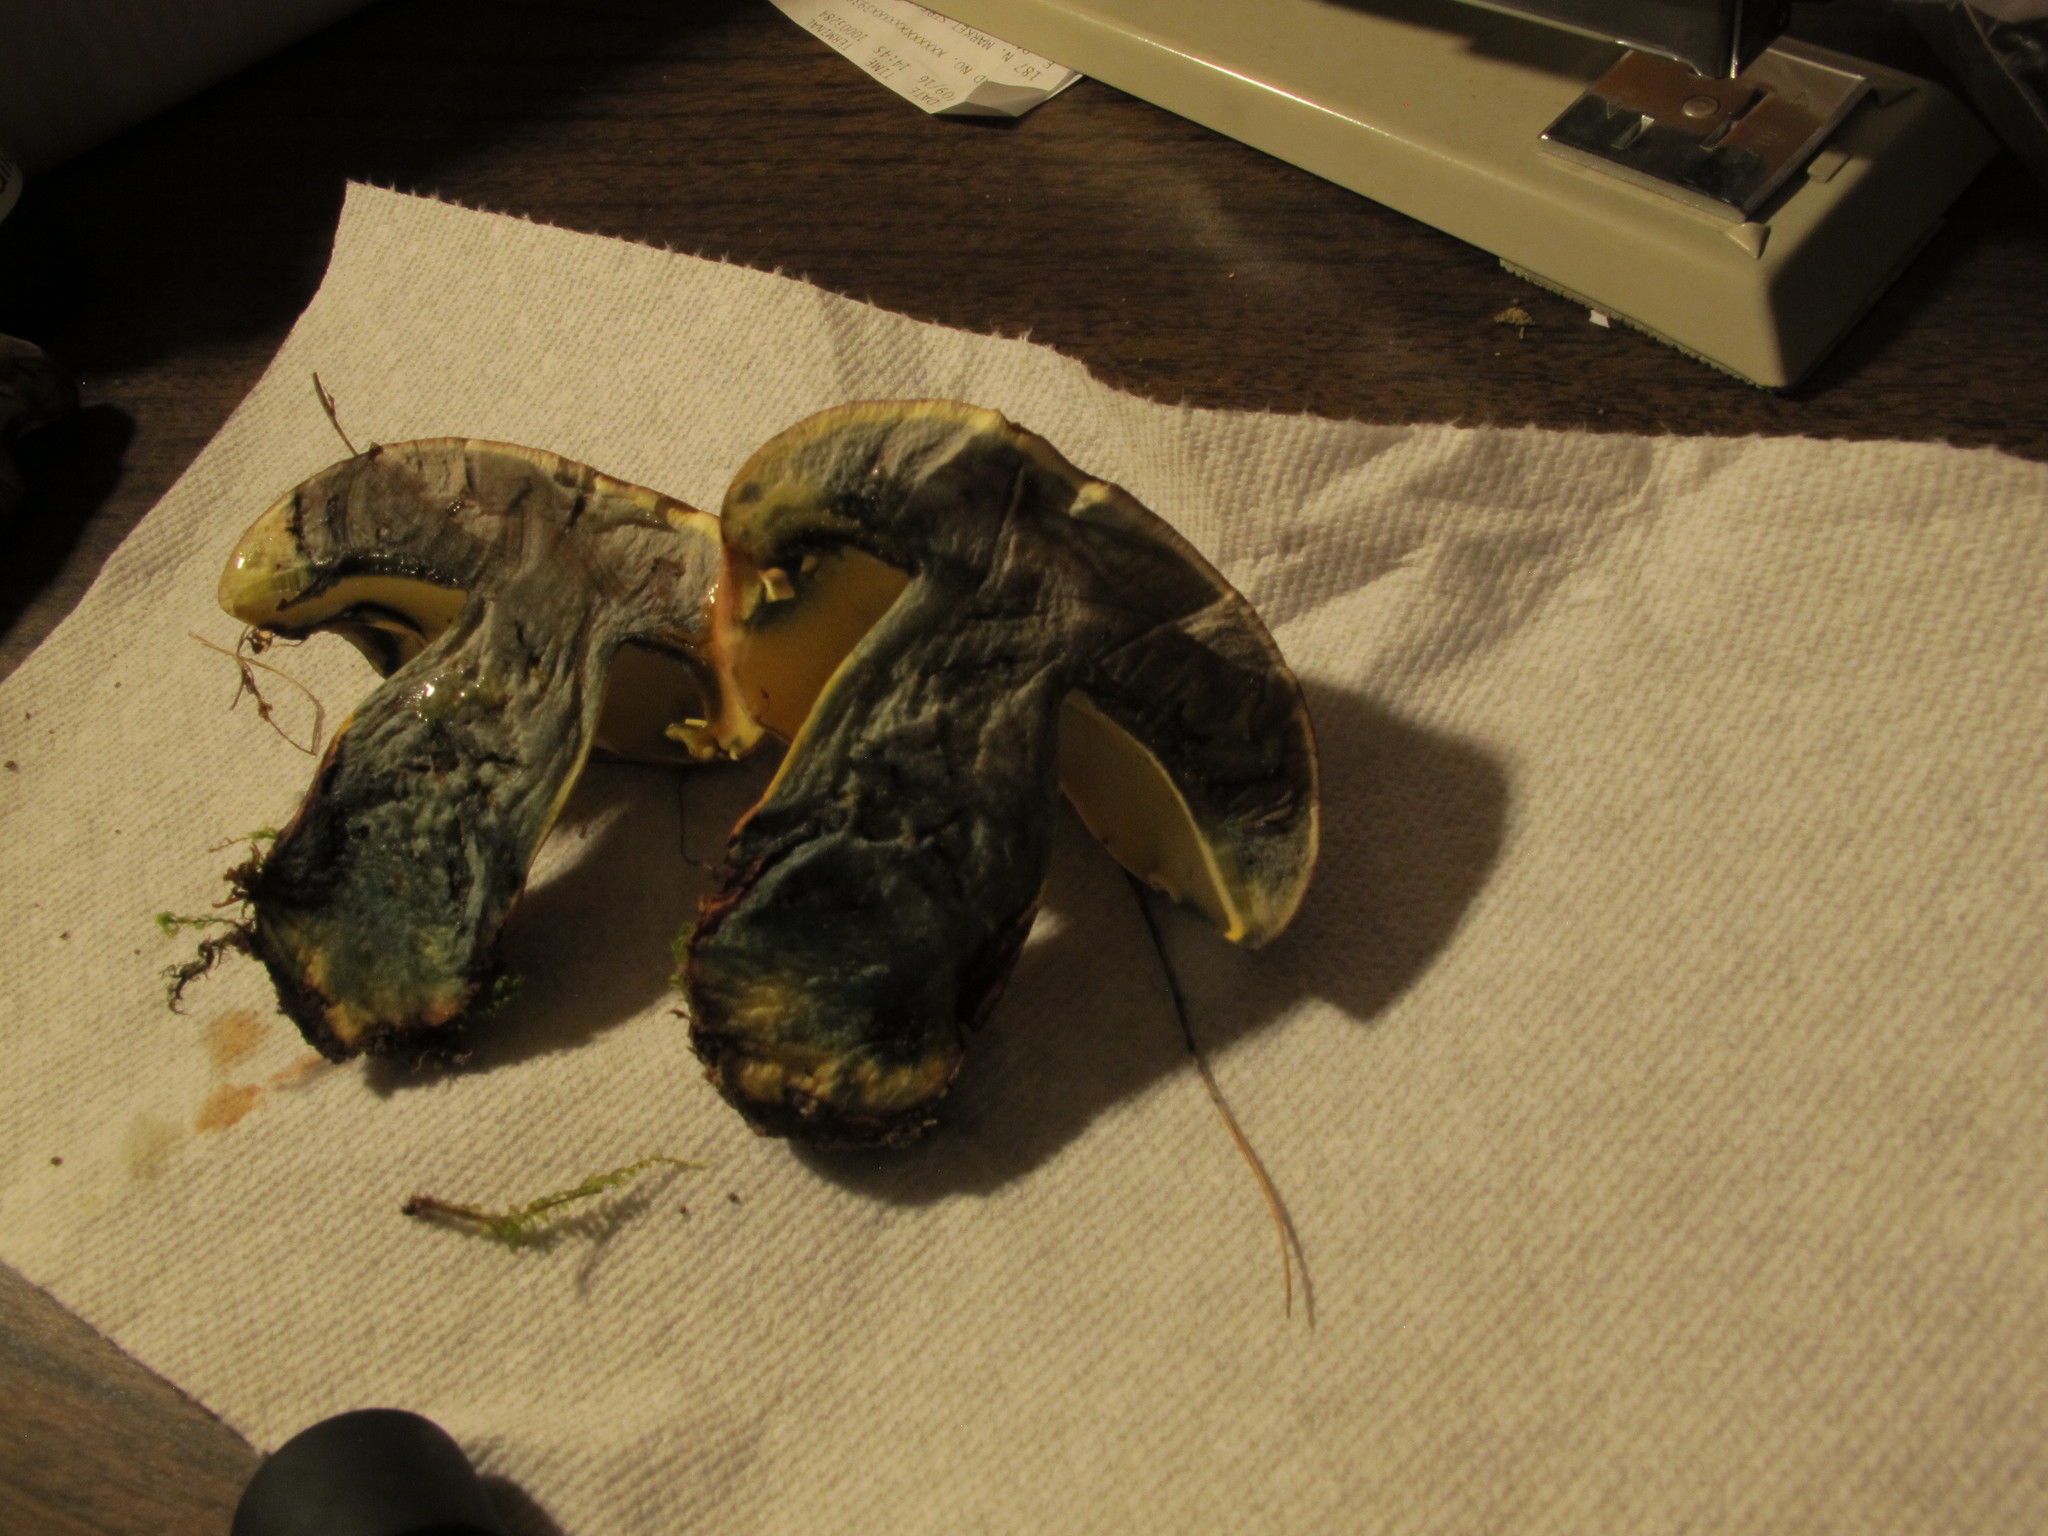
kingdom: Fungi
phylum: Basidiomycota
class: Agaricomycetes
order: Boletales
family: Boletaceae
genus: Lanmaoa
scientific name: Lanmaoa pseudosensibilis
